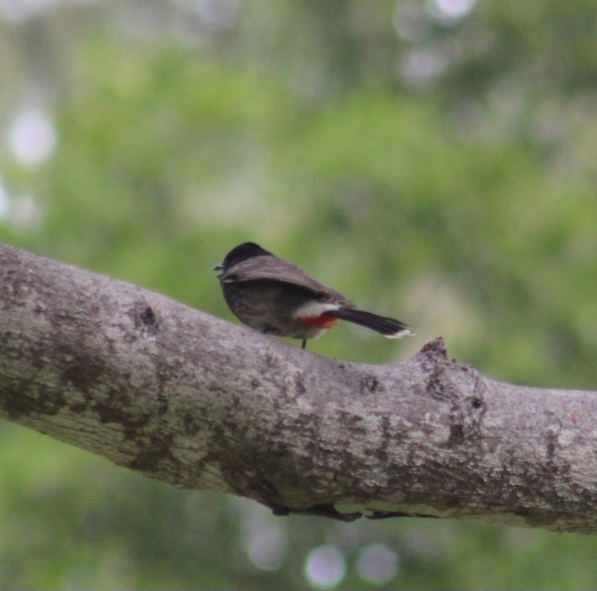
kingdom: Animalia
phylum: Chordata
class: Aves
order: Passeriformes
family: Pycnonotidae
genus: Pycnonotus
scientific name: Pycnonotus cafer
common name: Red-vented bulbul
